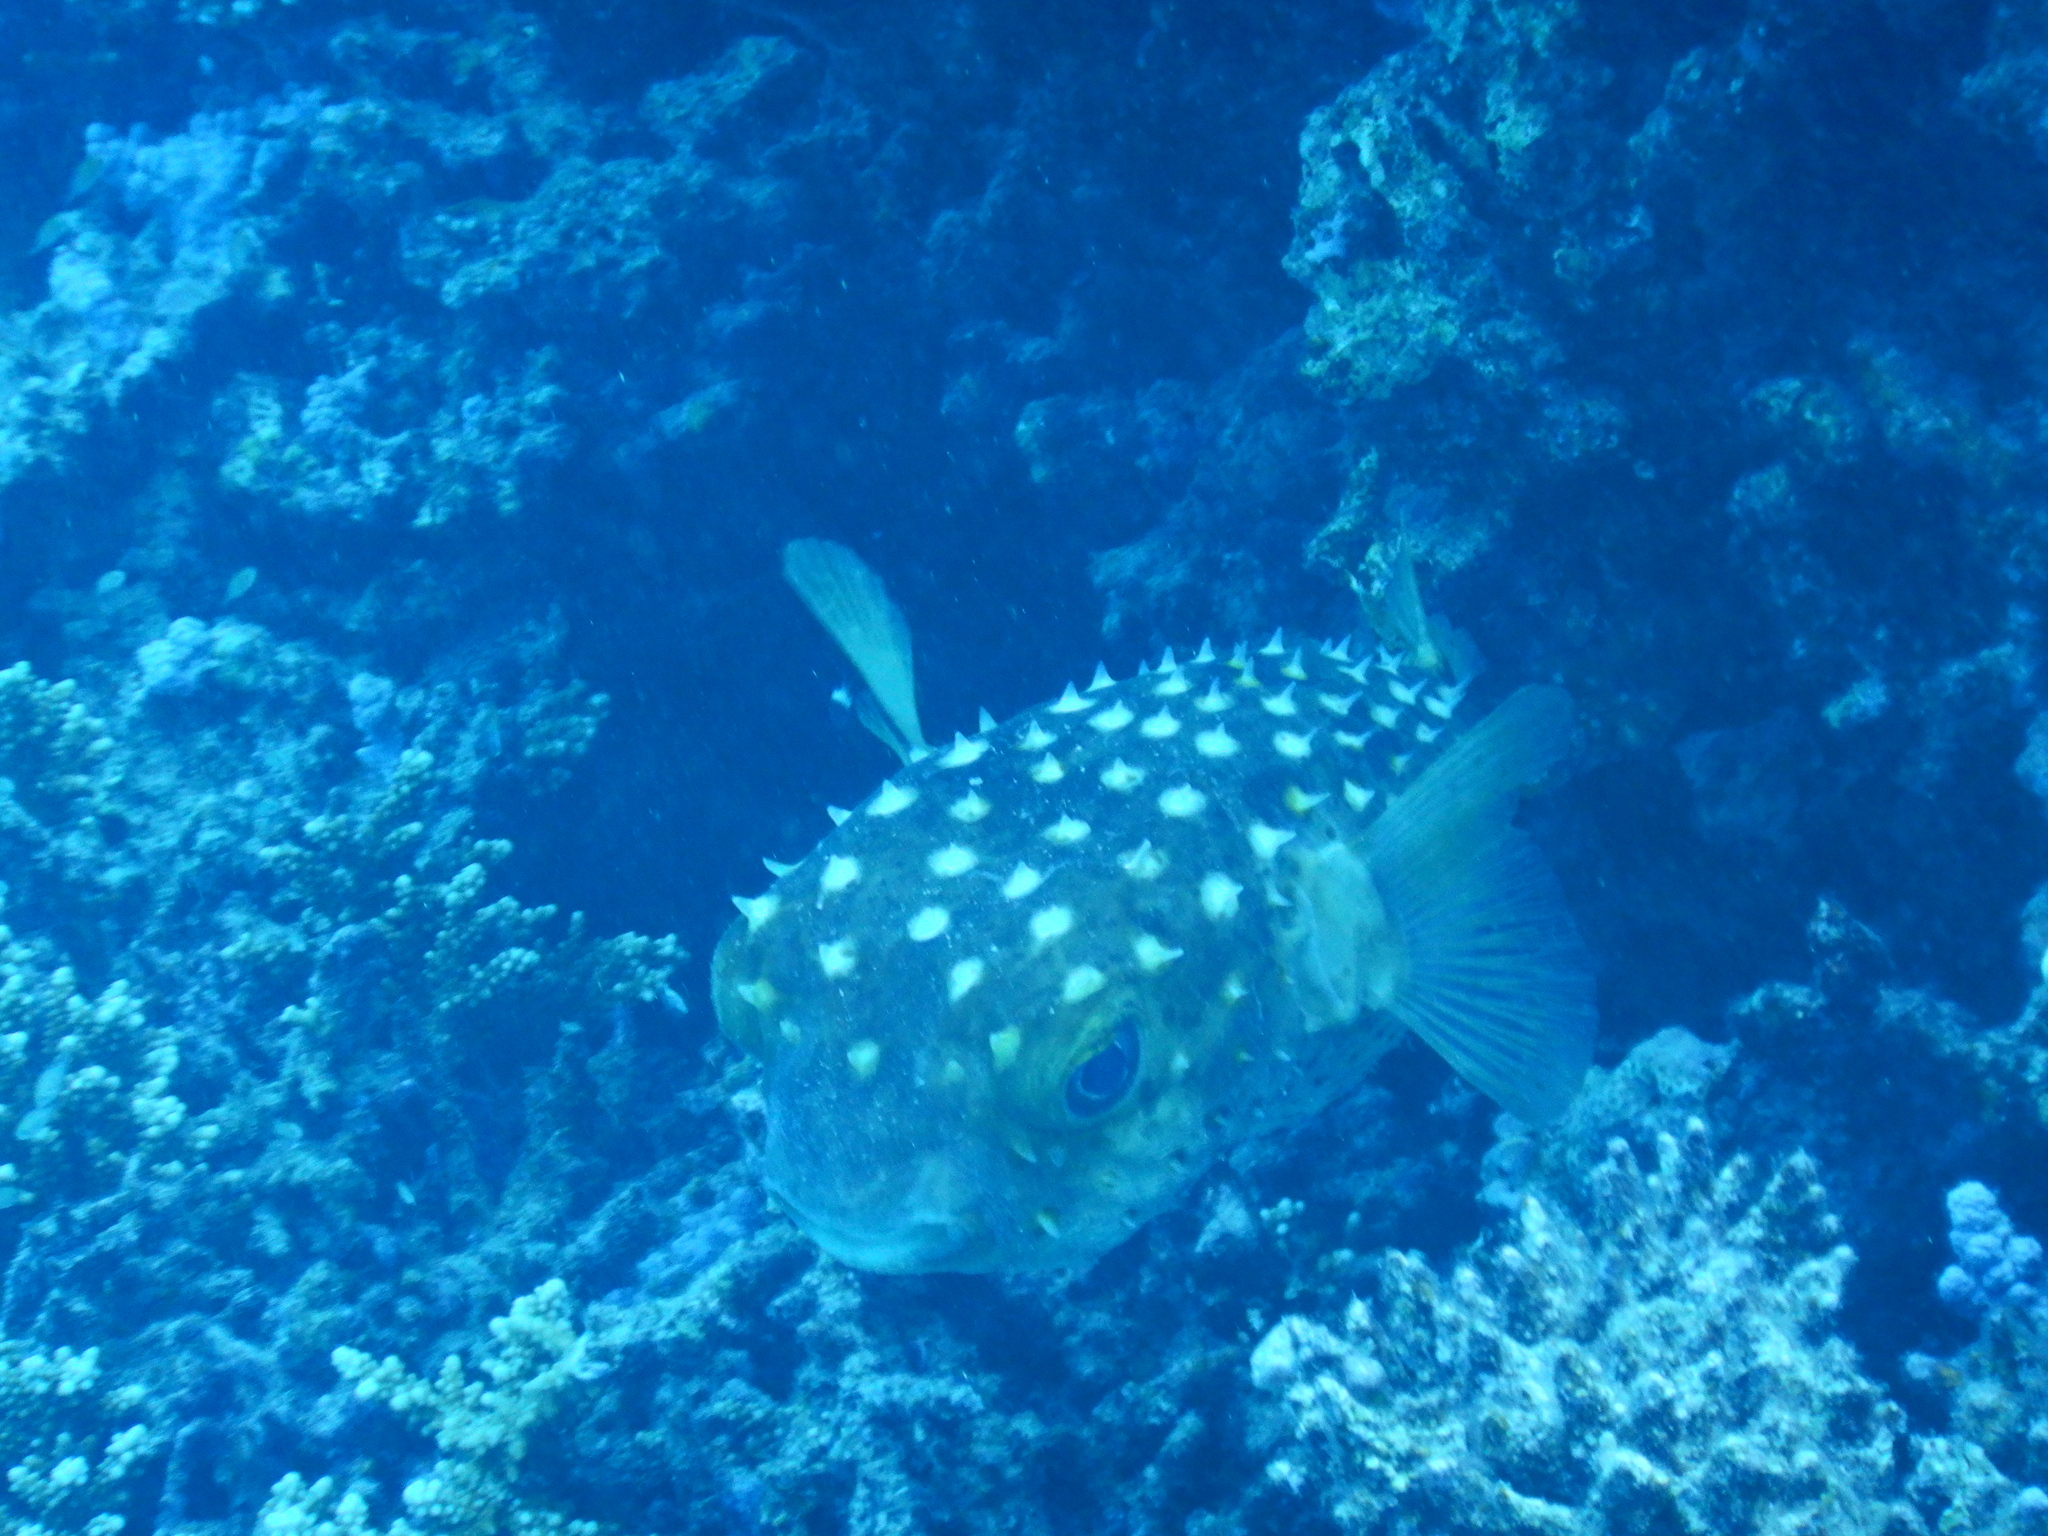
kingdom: Animalia
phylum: Chordata
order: Tetraodontiformes
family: Diodontidae
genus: Cyclichthys
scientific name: Cyclichthys spilostylus
